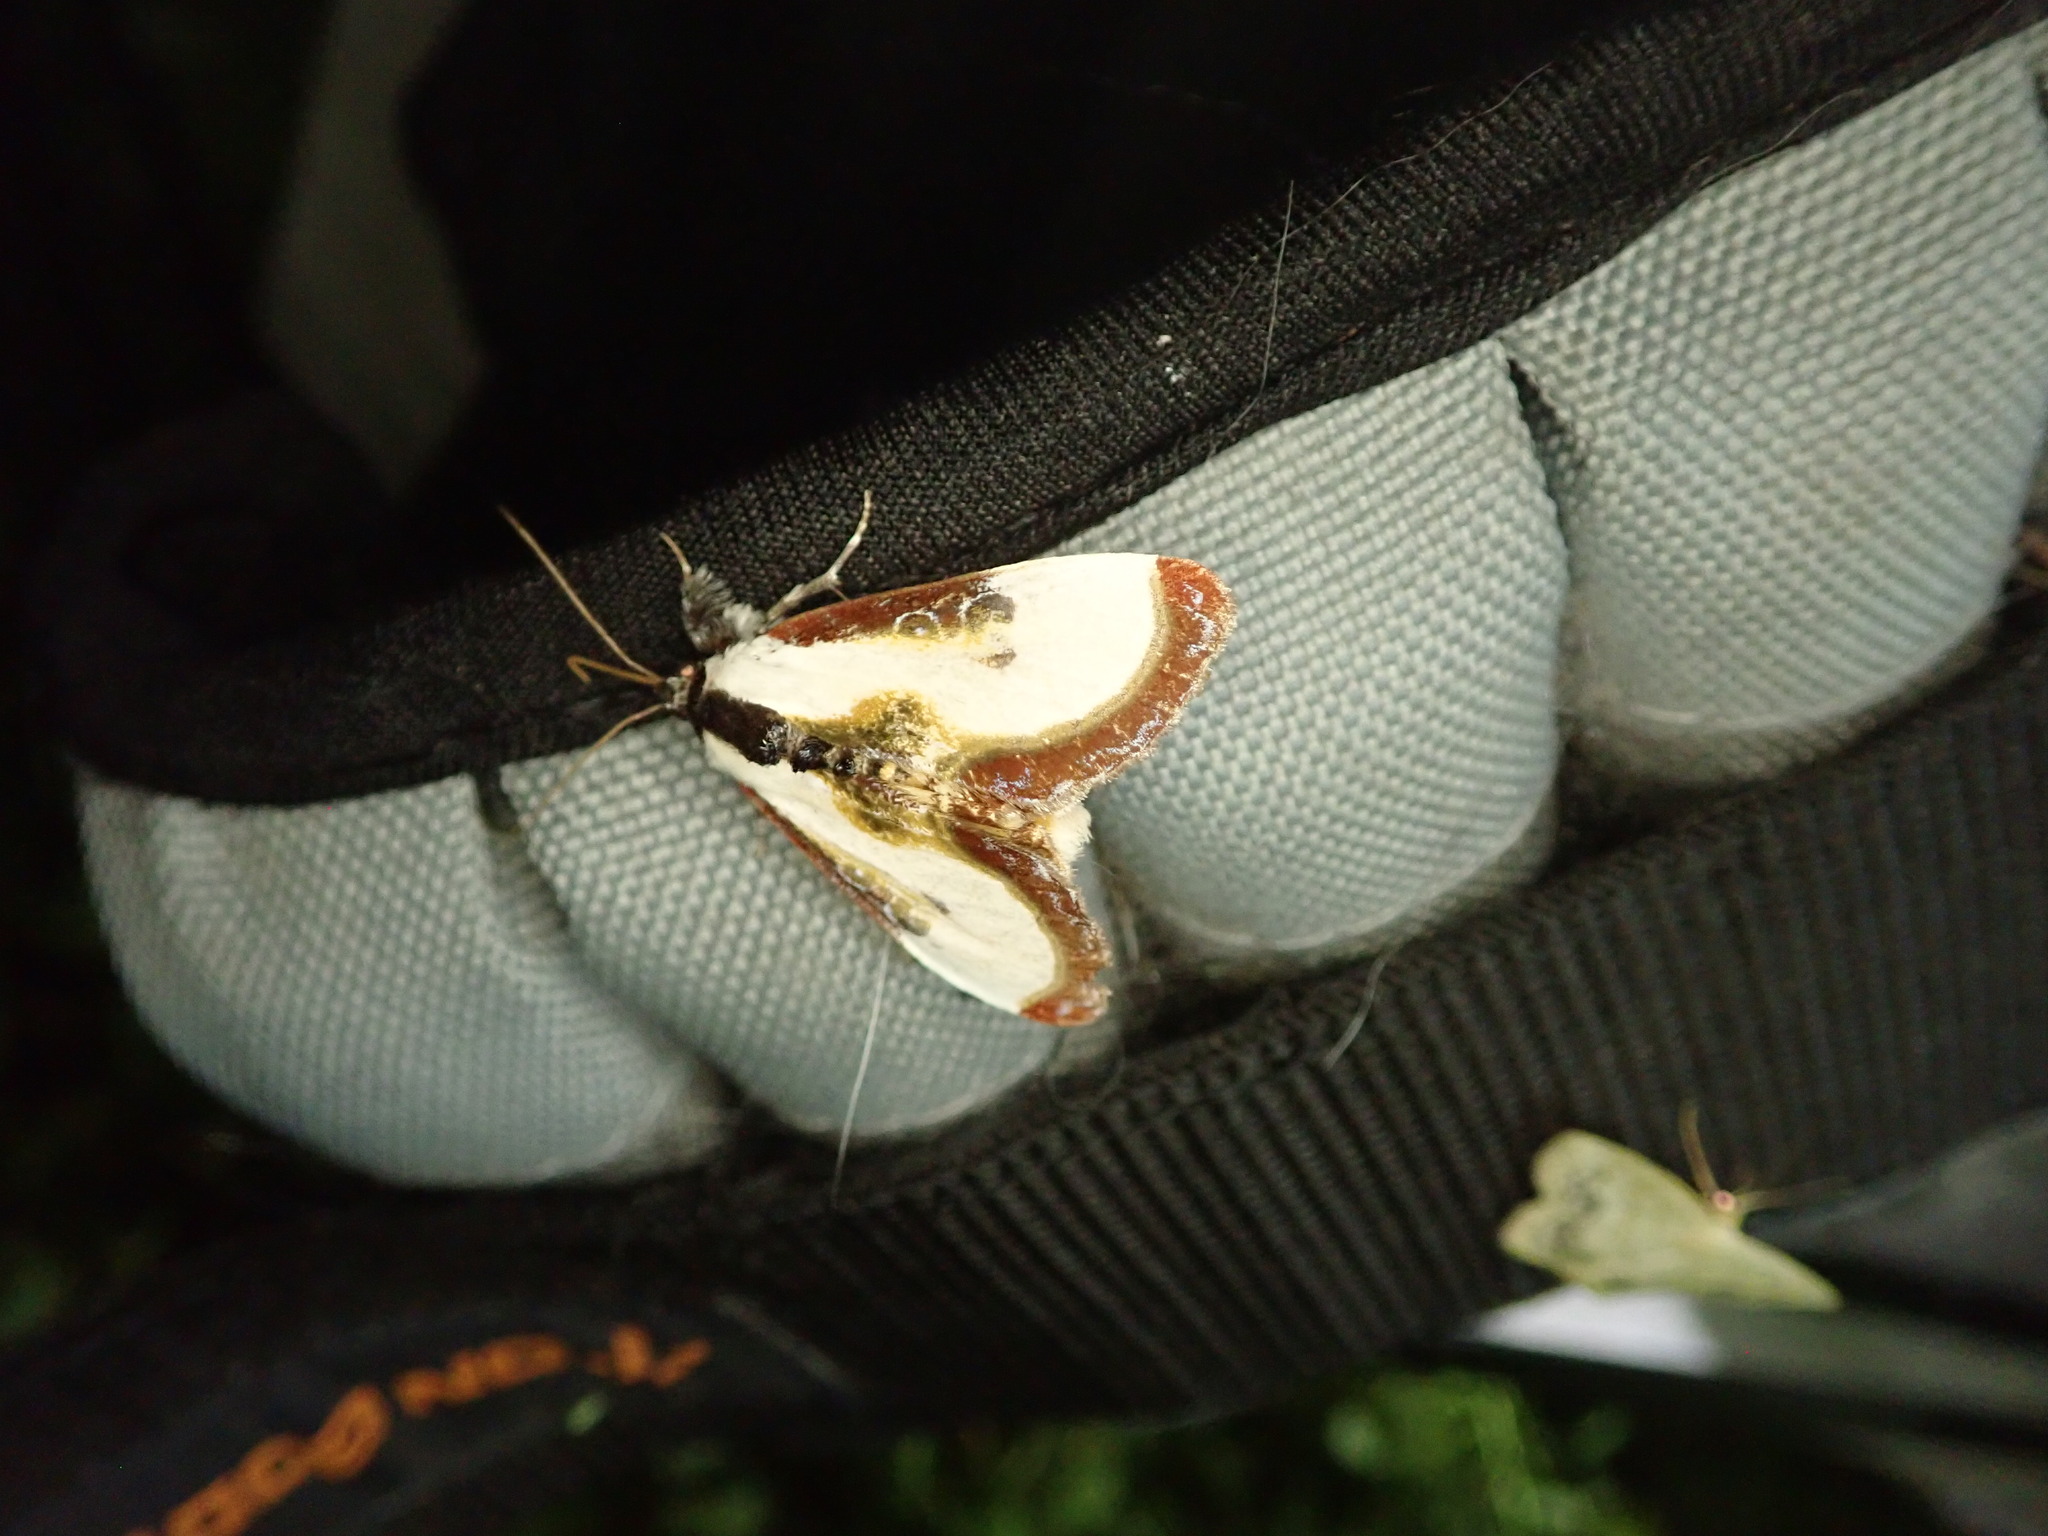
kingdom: Animalia
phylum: Arthropoda
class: Insecta
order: Lepidoptera
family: Noctuidae
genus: Eudryas
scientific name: Eudryas grata
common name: Beautiful wood-nymph
